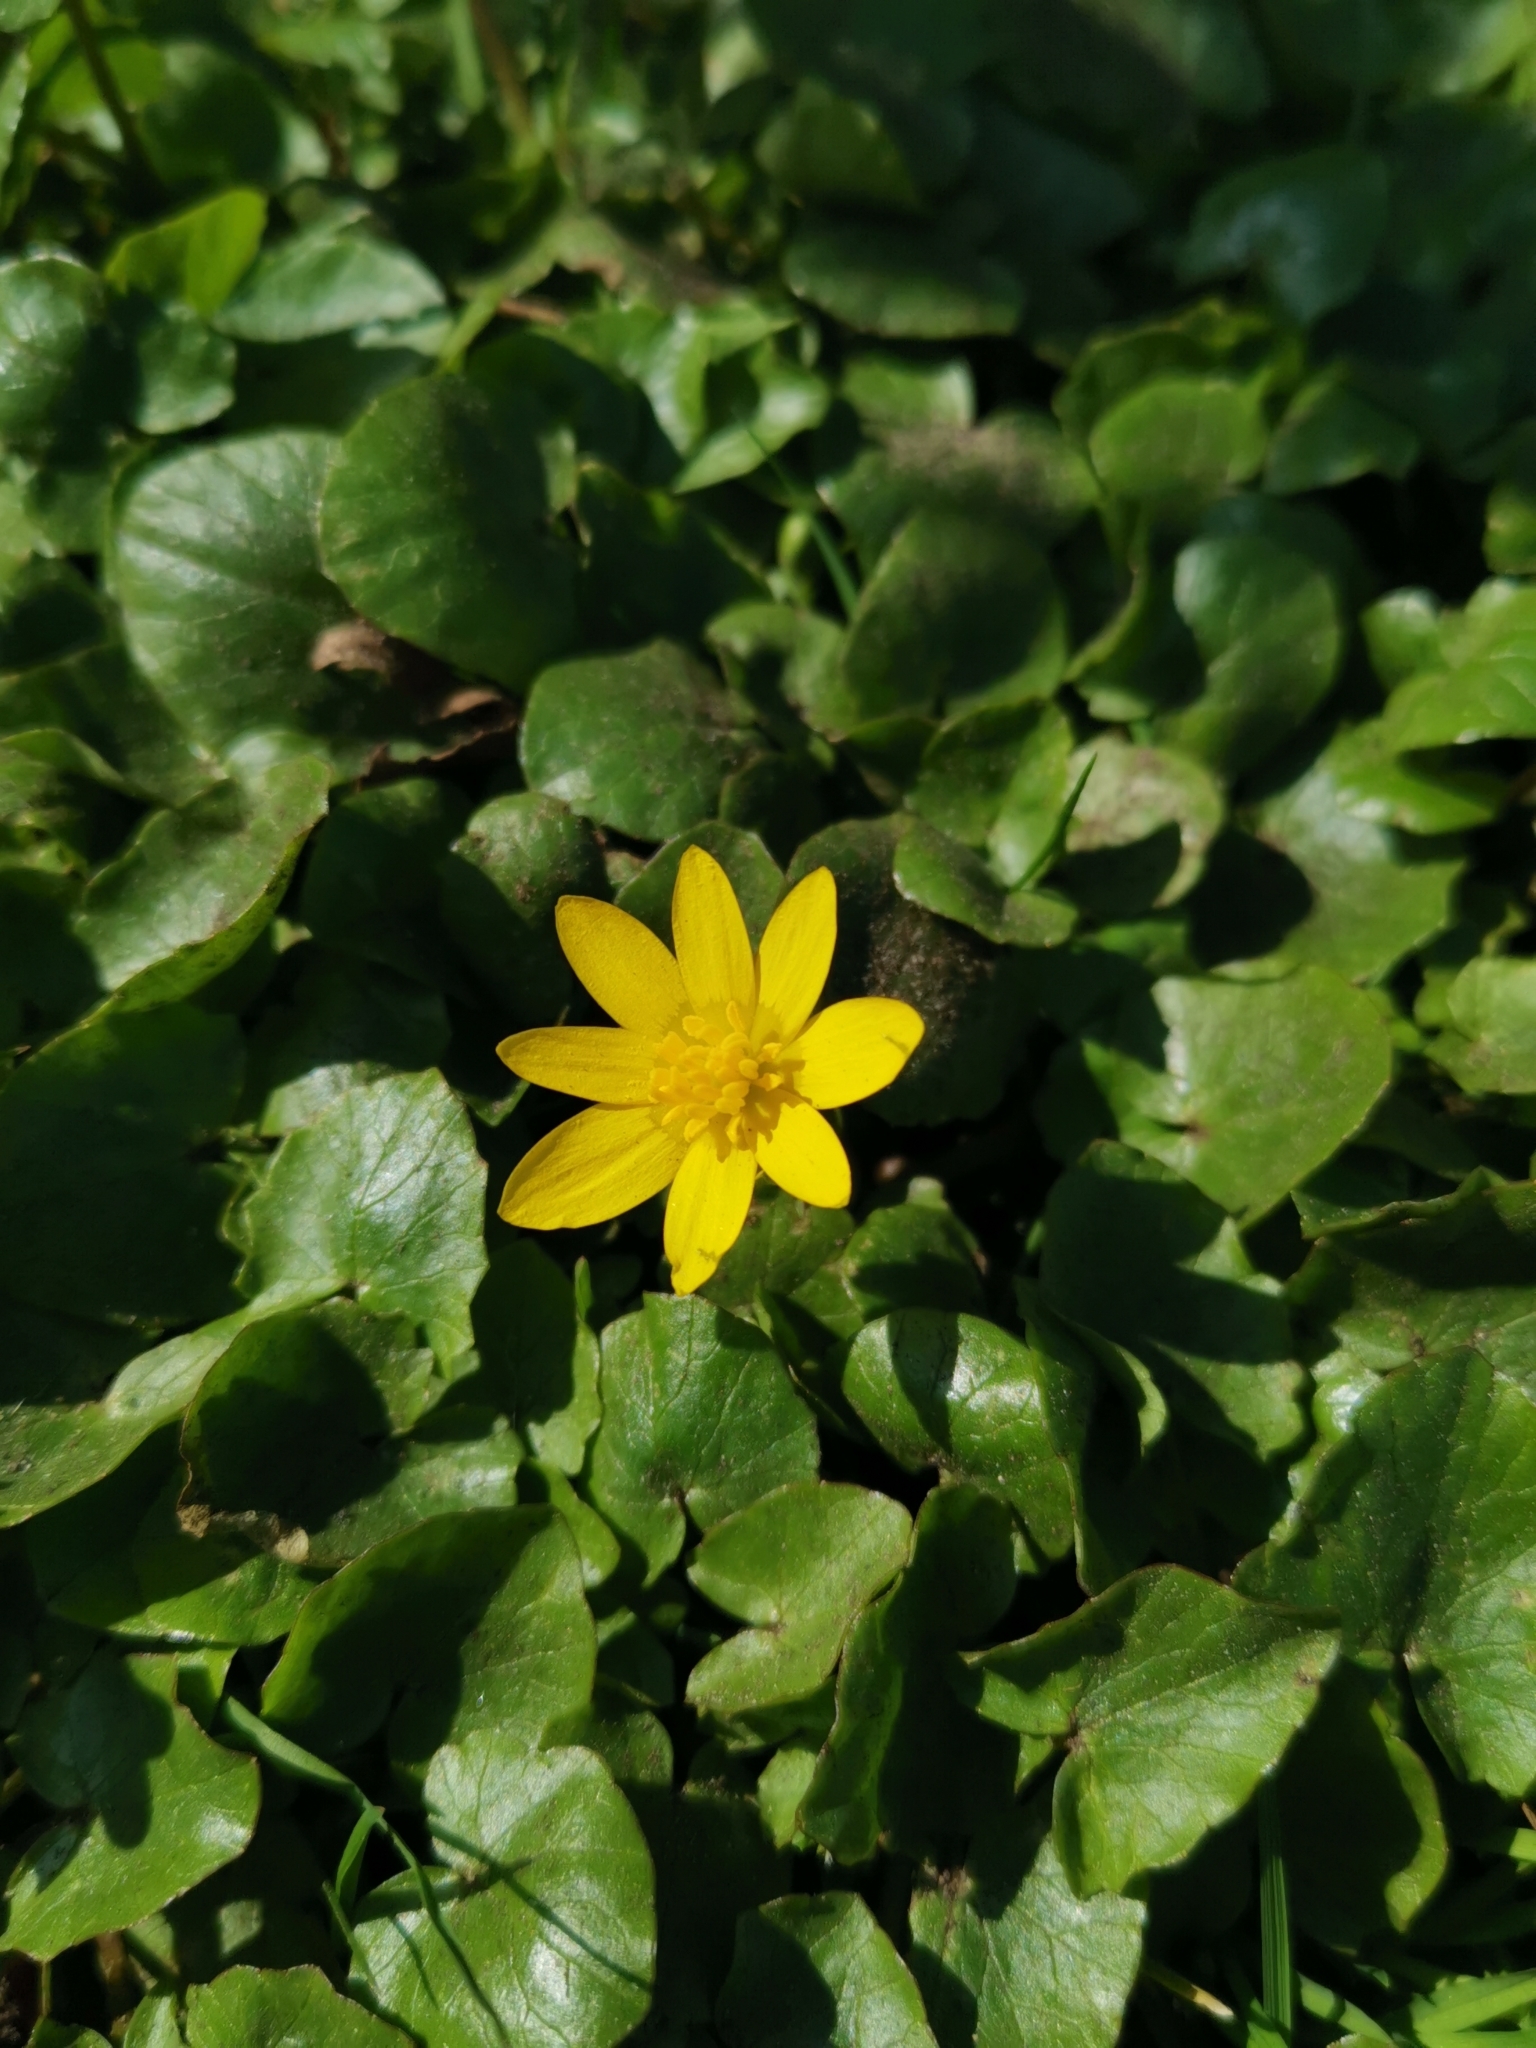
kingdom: Plantae
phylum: Tracheophyta
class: Magnoliopsida
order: Ranunculales
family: Ranunculaceae
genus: Ficaria
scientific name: Ficaria verna
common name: Lesser celandine
